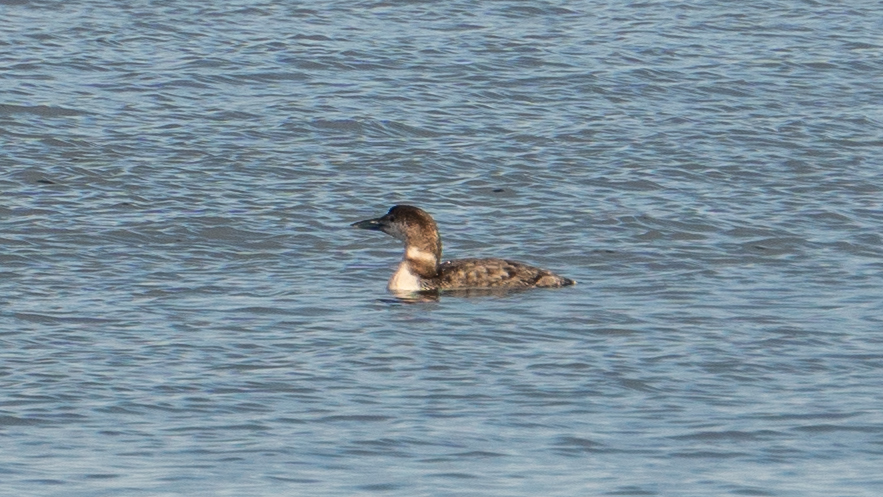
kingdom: Animalia
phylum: Chordata
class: Aves
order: Gaviiformes
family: Gaviidae
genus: Gavia
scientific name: Gavia immer
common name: Common loon
